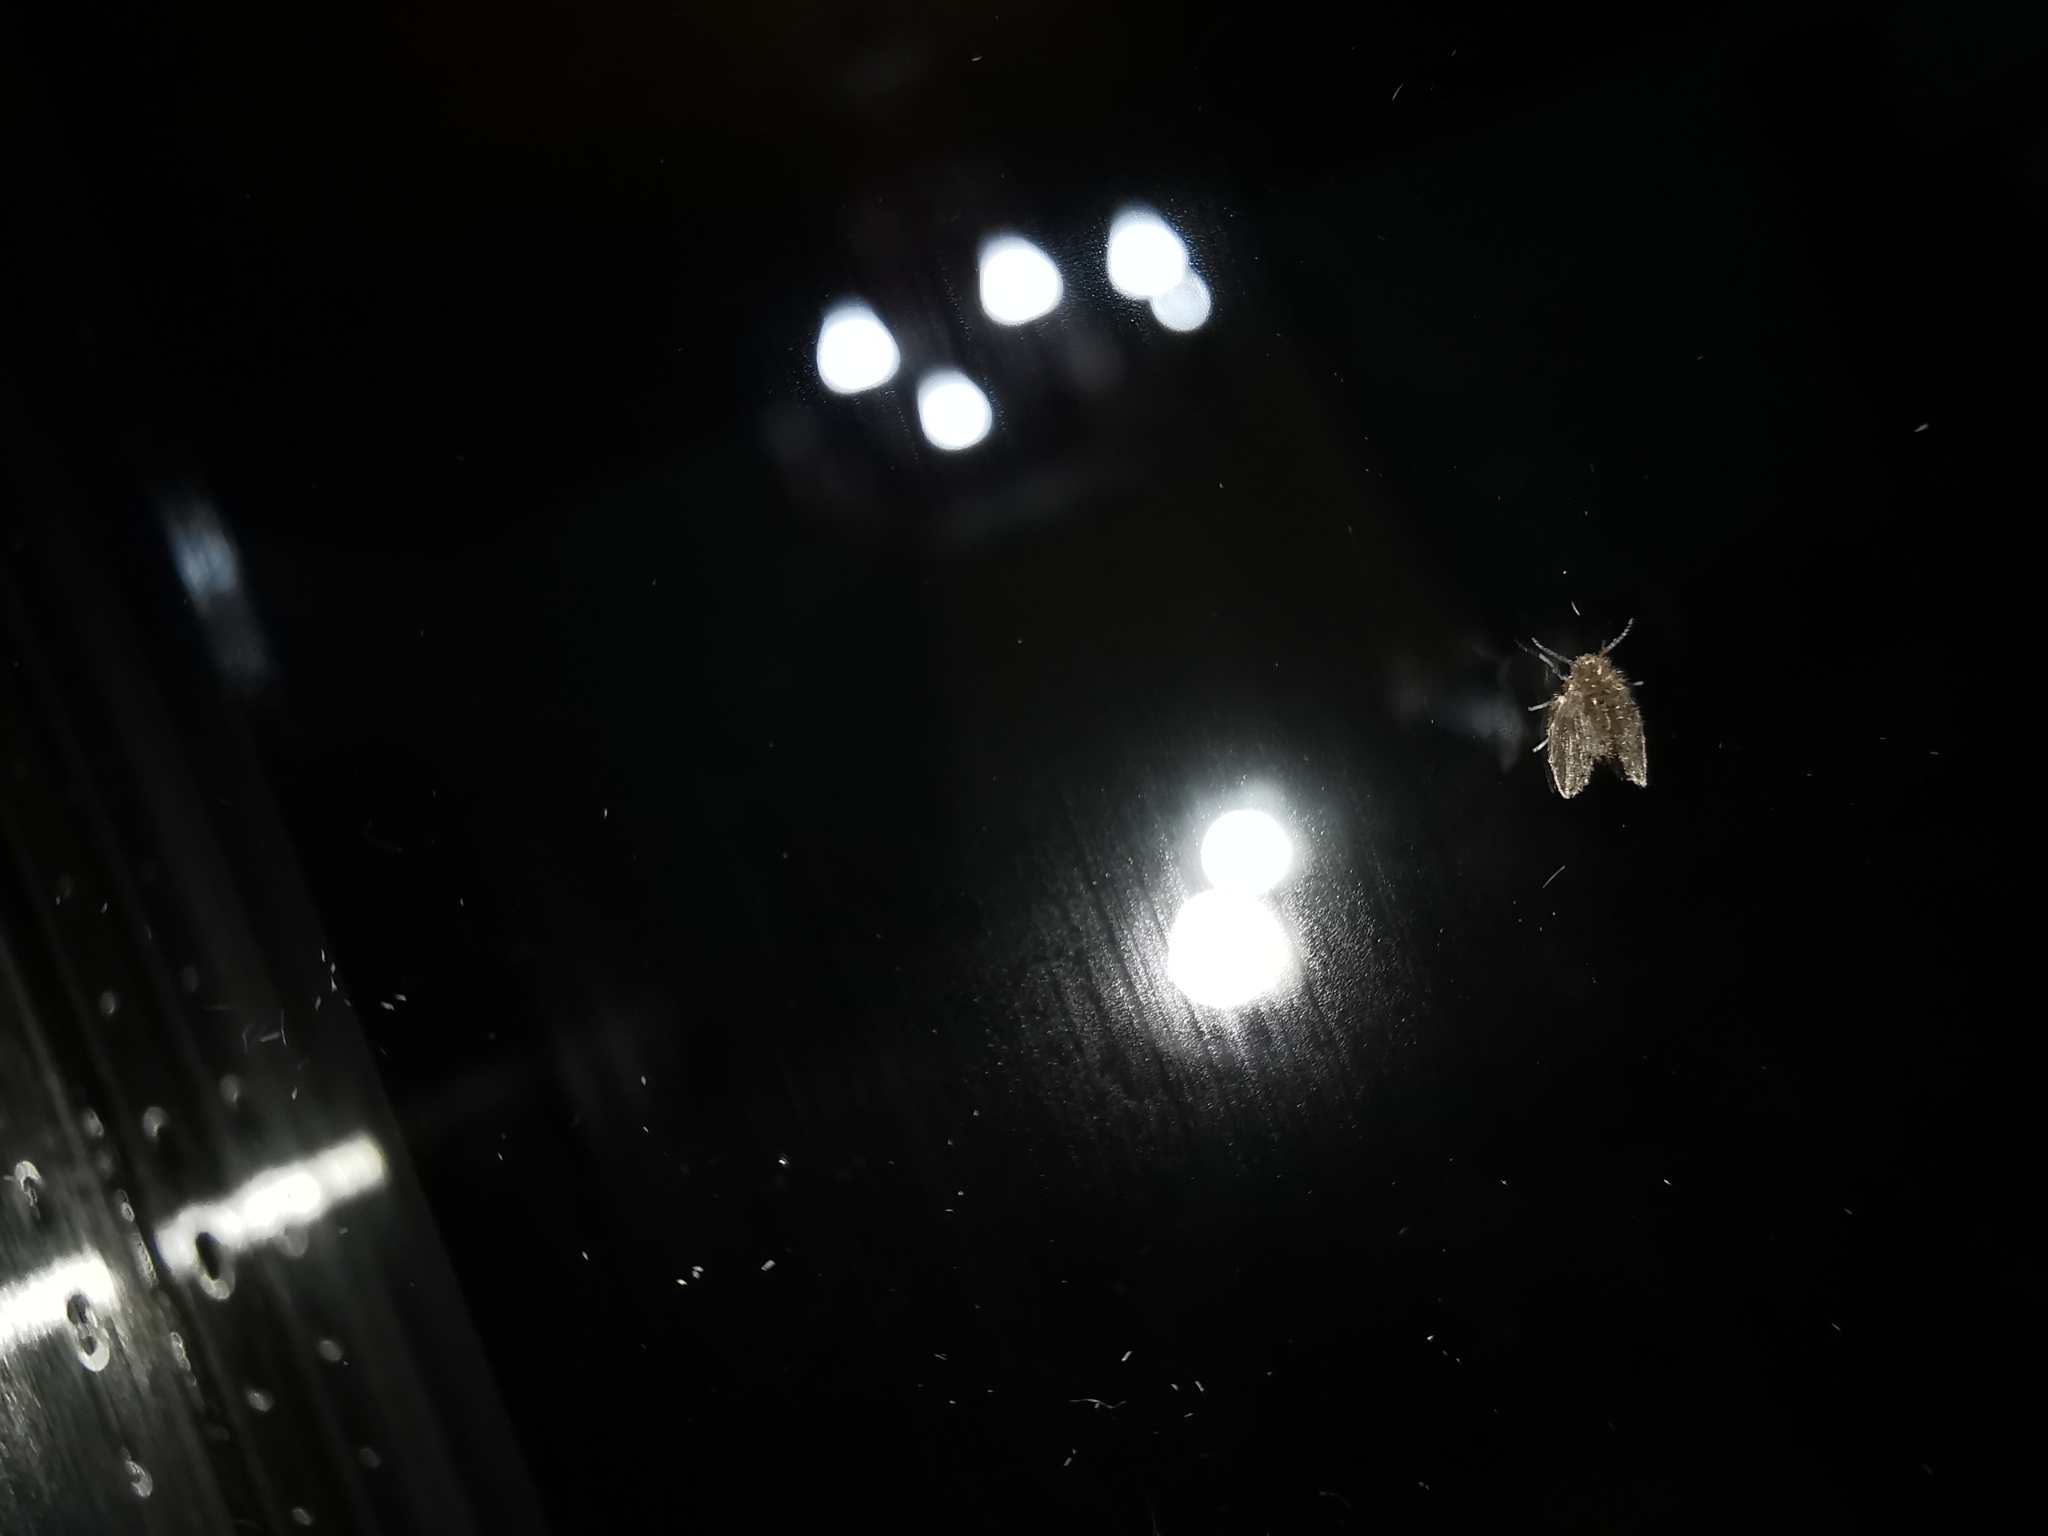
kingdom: Animalia
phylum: Arthropoda
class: Insecta
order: Diptera
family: Psychodidae
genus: Clogmia
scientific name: Clogmia albipunctatus
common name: White-spotted moth fly
